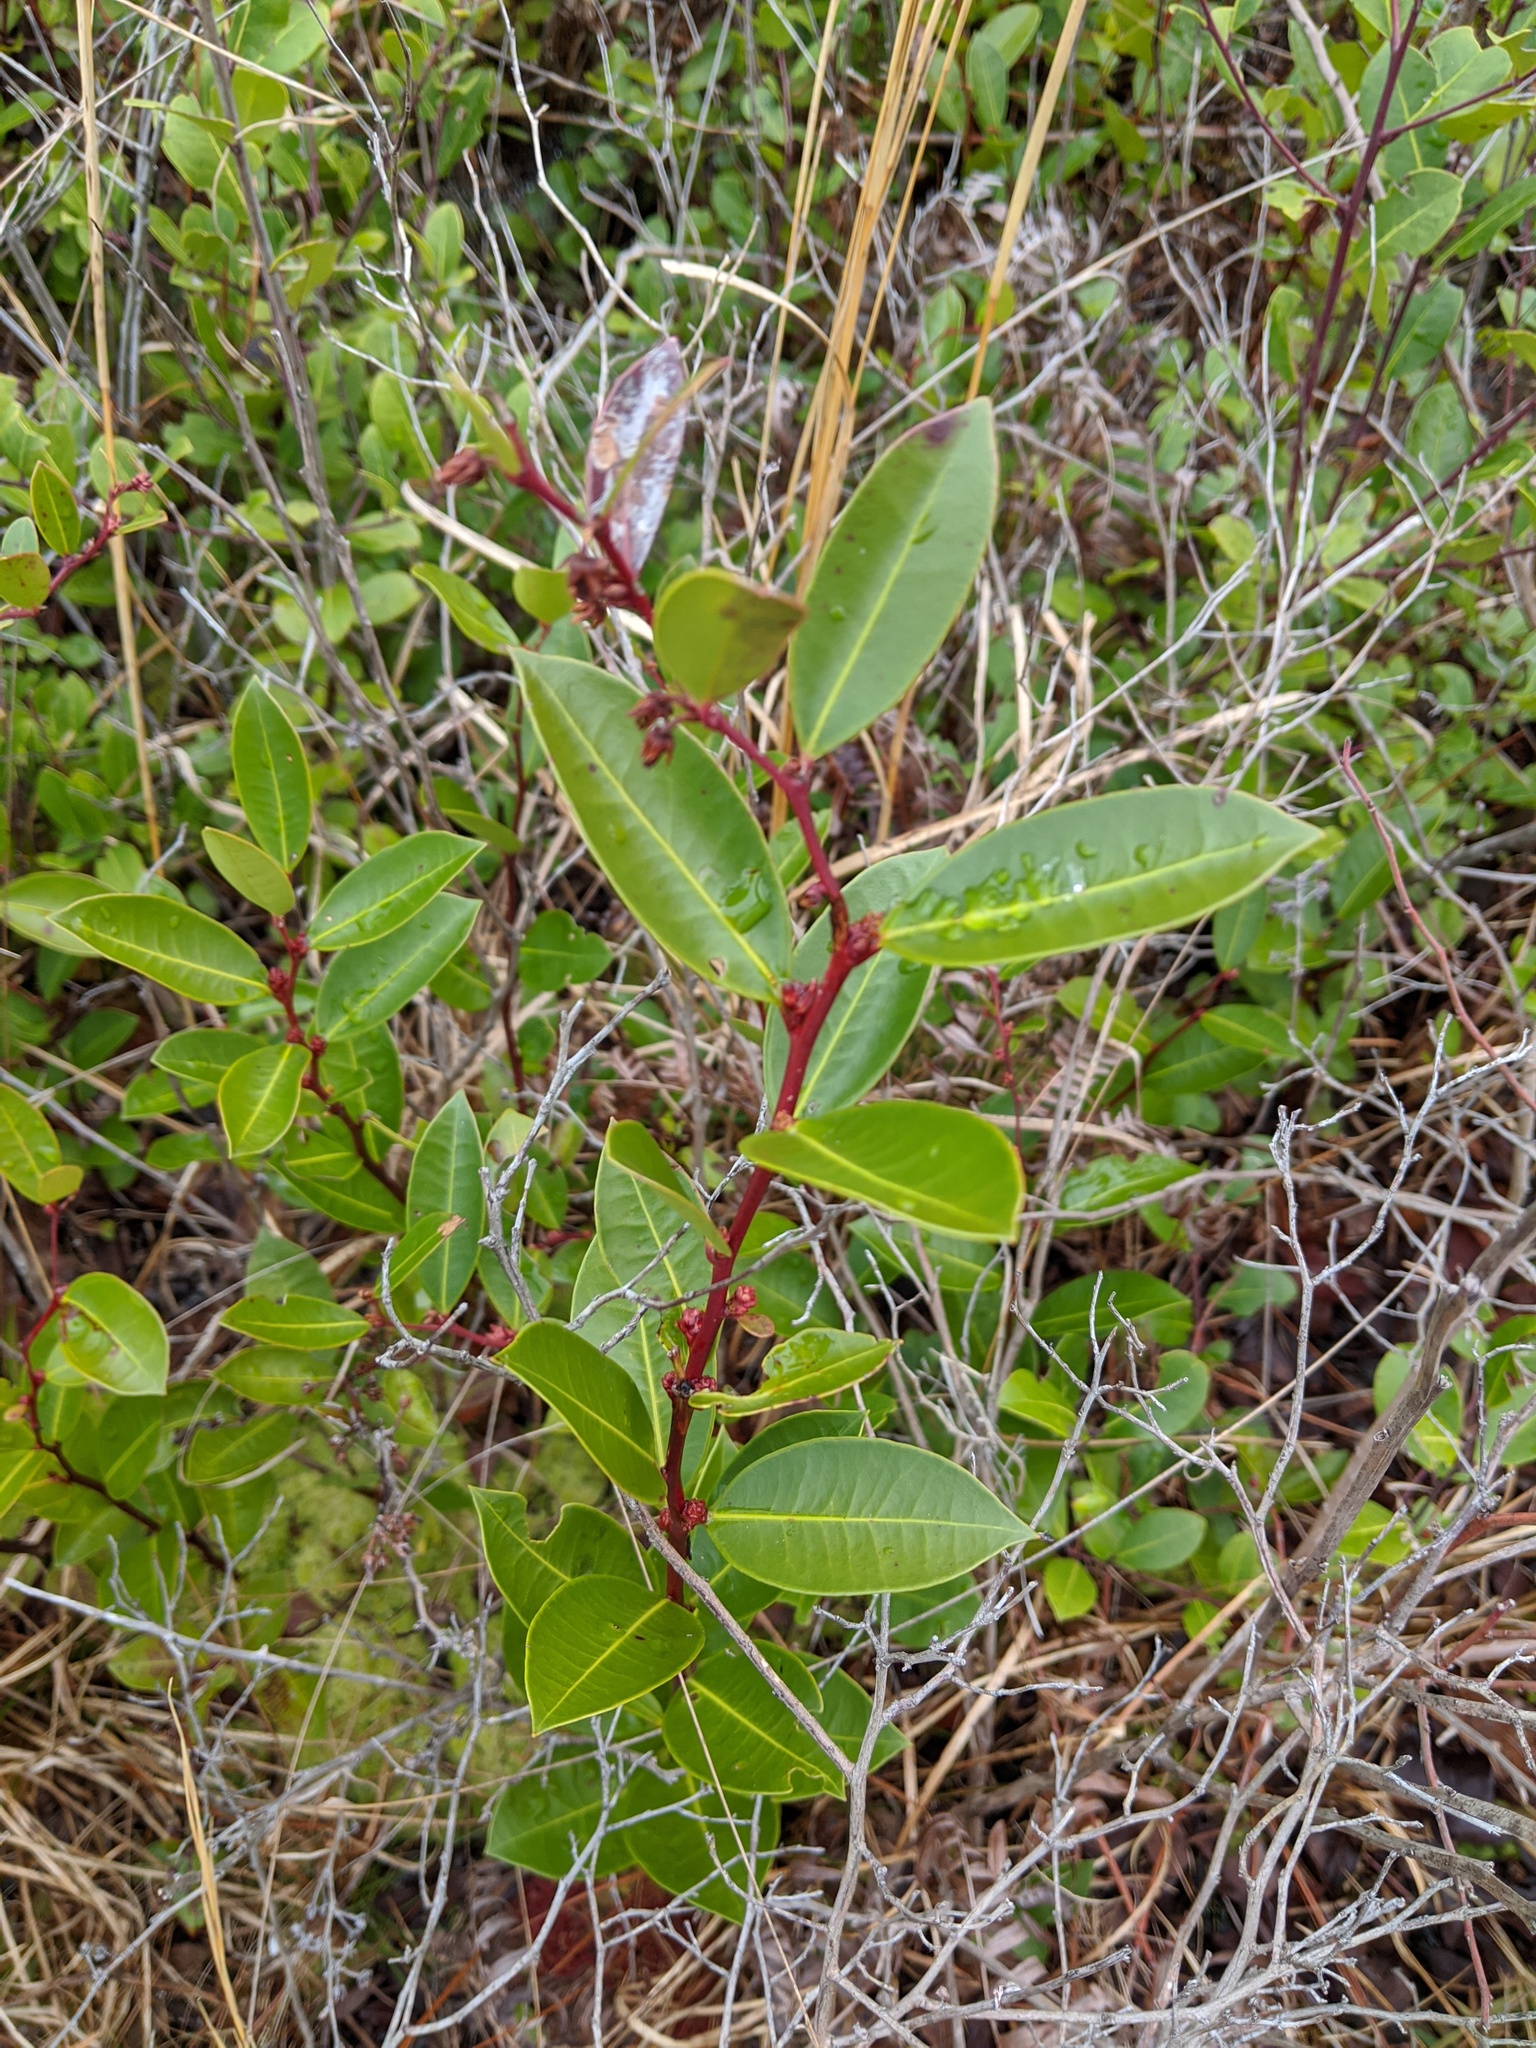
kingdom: Plantae
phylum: Tracheophyta
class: Magnoliopsida
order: Ericales
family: Ericaceae
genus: Lyonia
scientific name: Lyonia lucida
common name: Fetterbush
